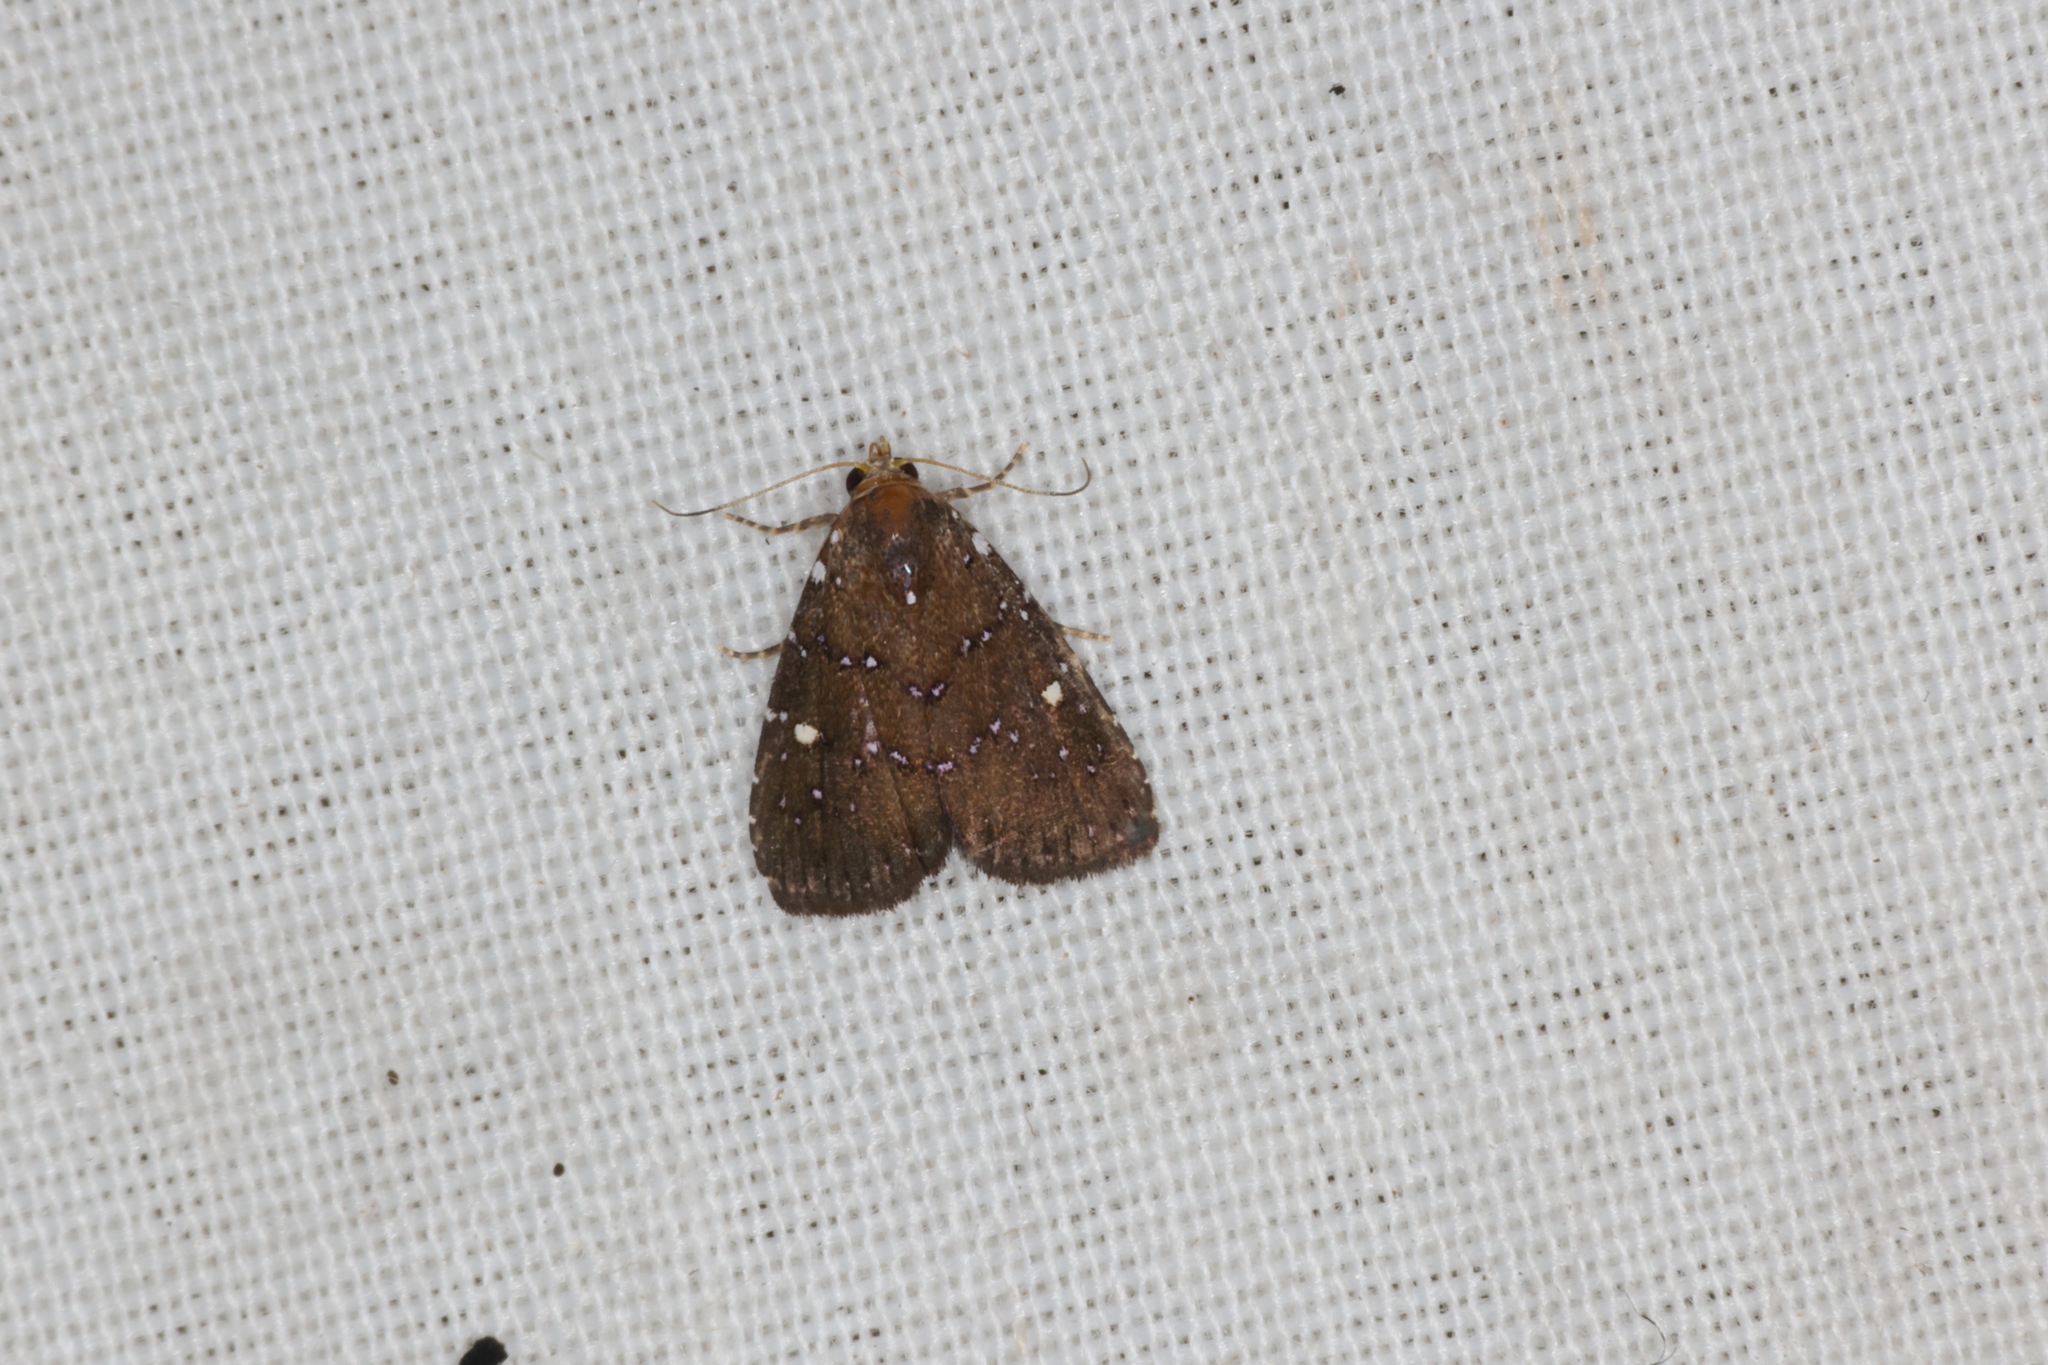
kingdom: Animalia
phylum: Arthropoda
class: Insecta
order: Lepidoptera
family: Erebidae
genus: Rivula
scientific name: Rivula niveipuncta
